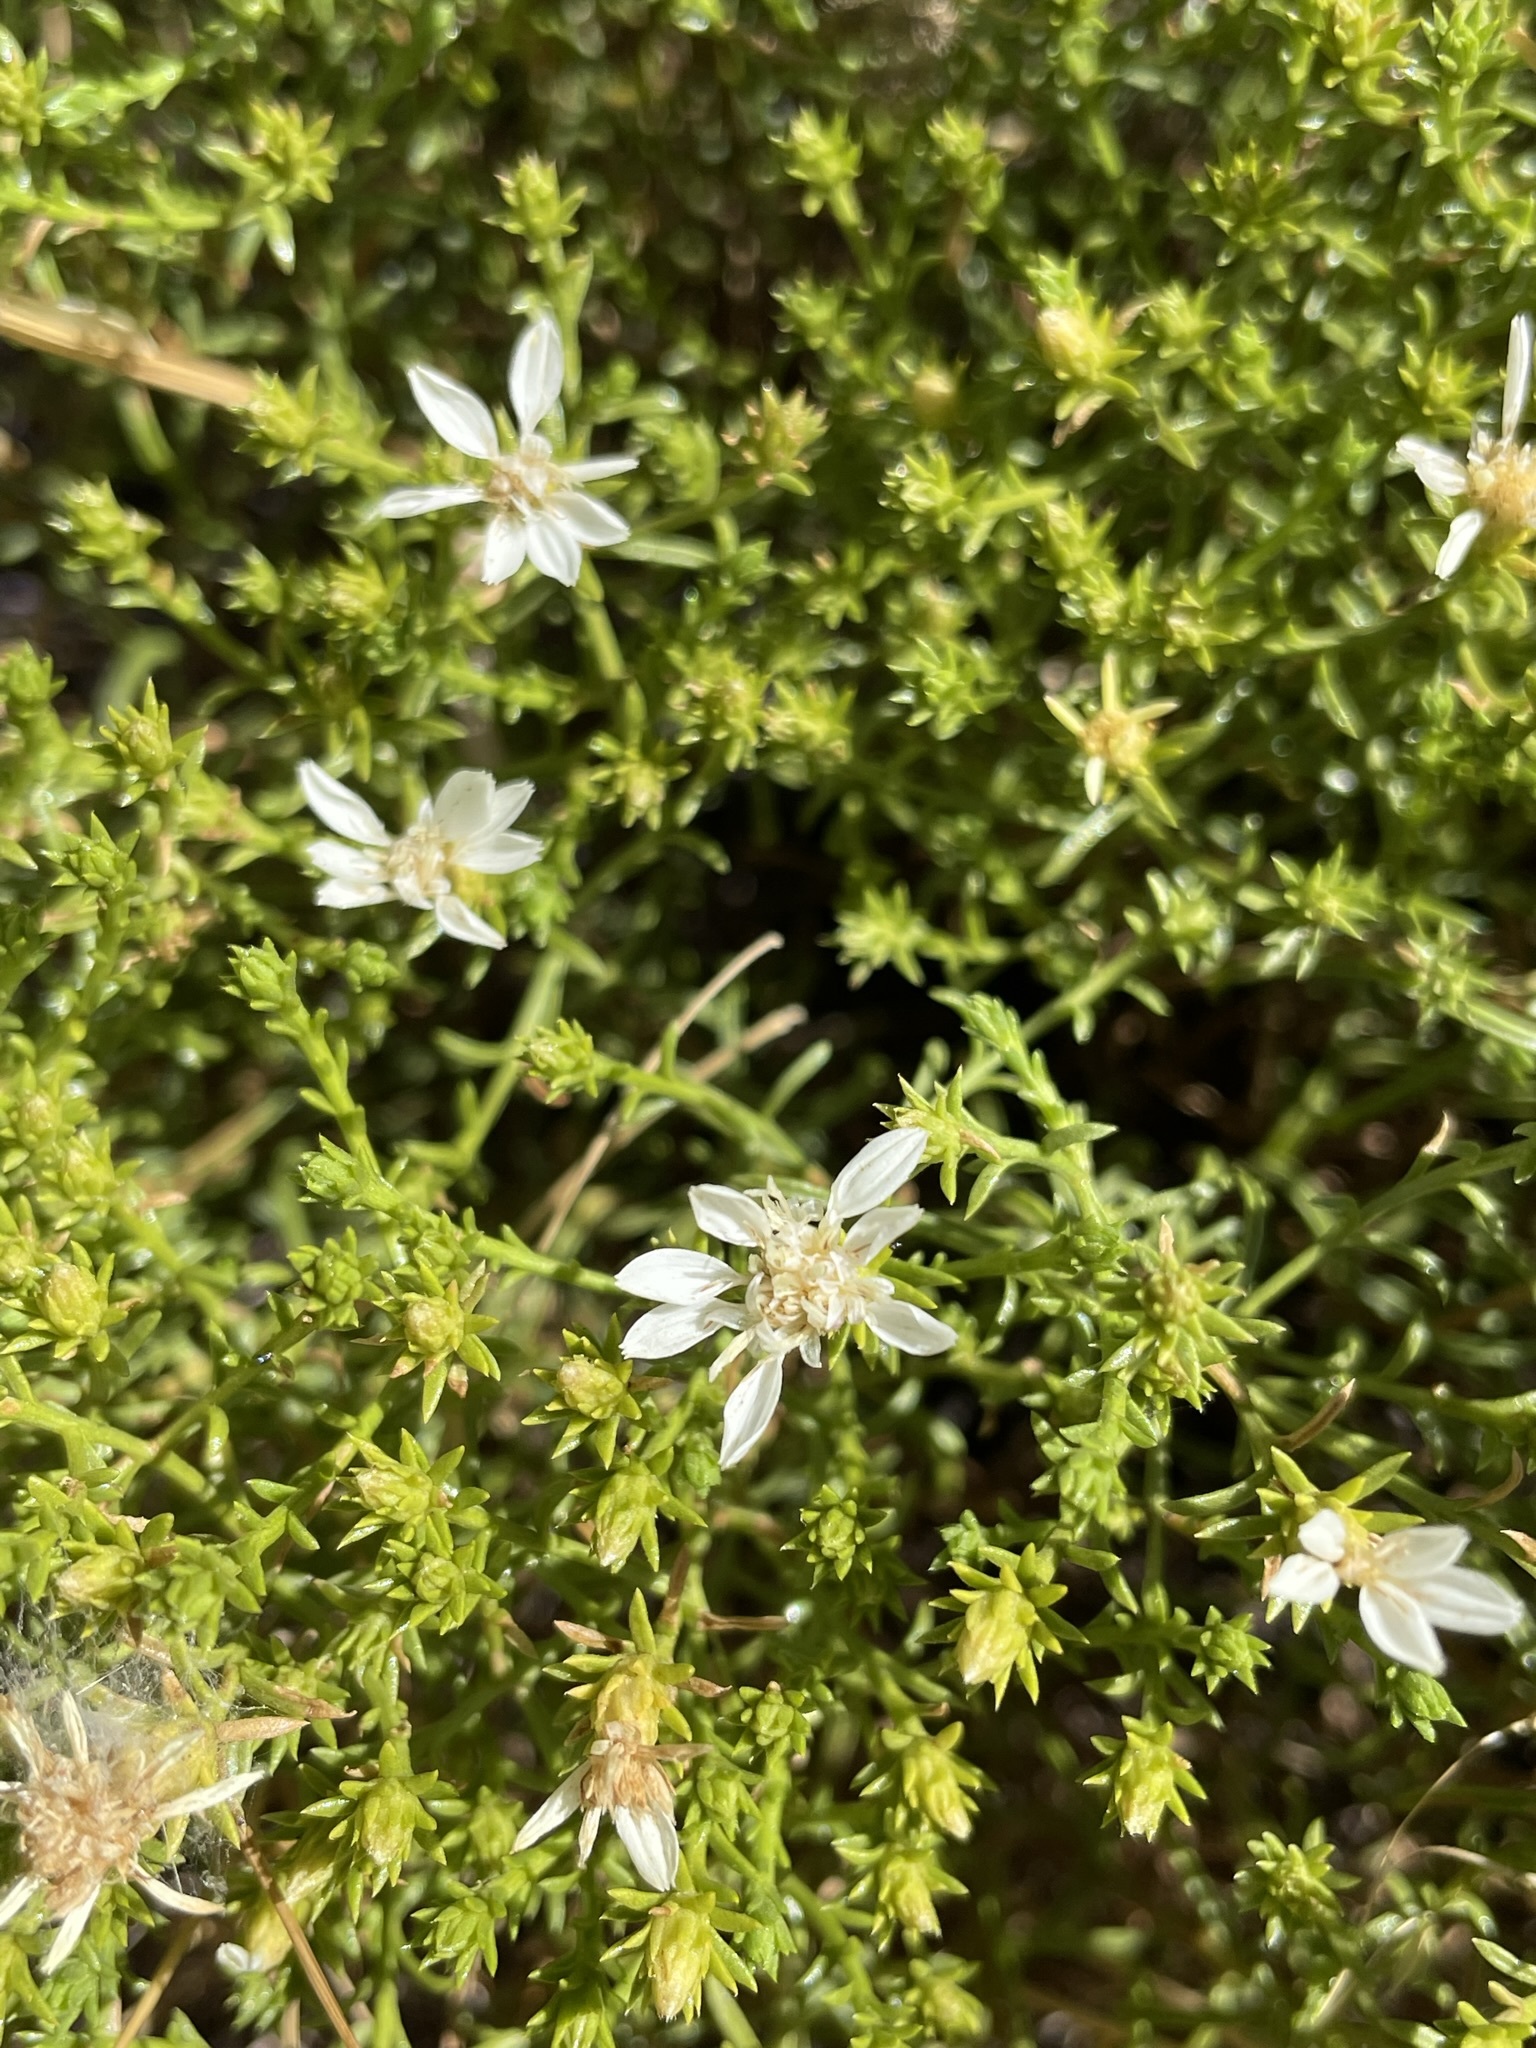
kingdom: Plantae
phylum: Tracheophyta
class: Magnoliopsida
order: Asterales
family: Asteraceae
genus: Ericameria
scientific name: Ericameria resinosa
